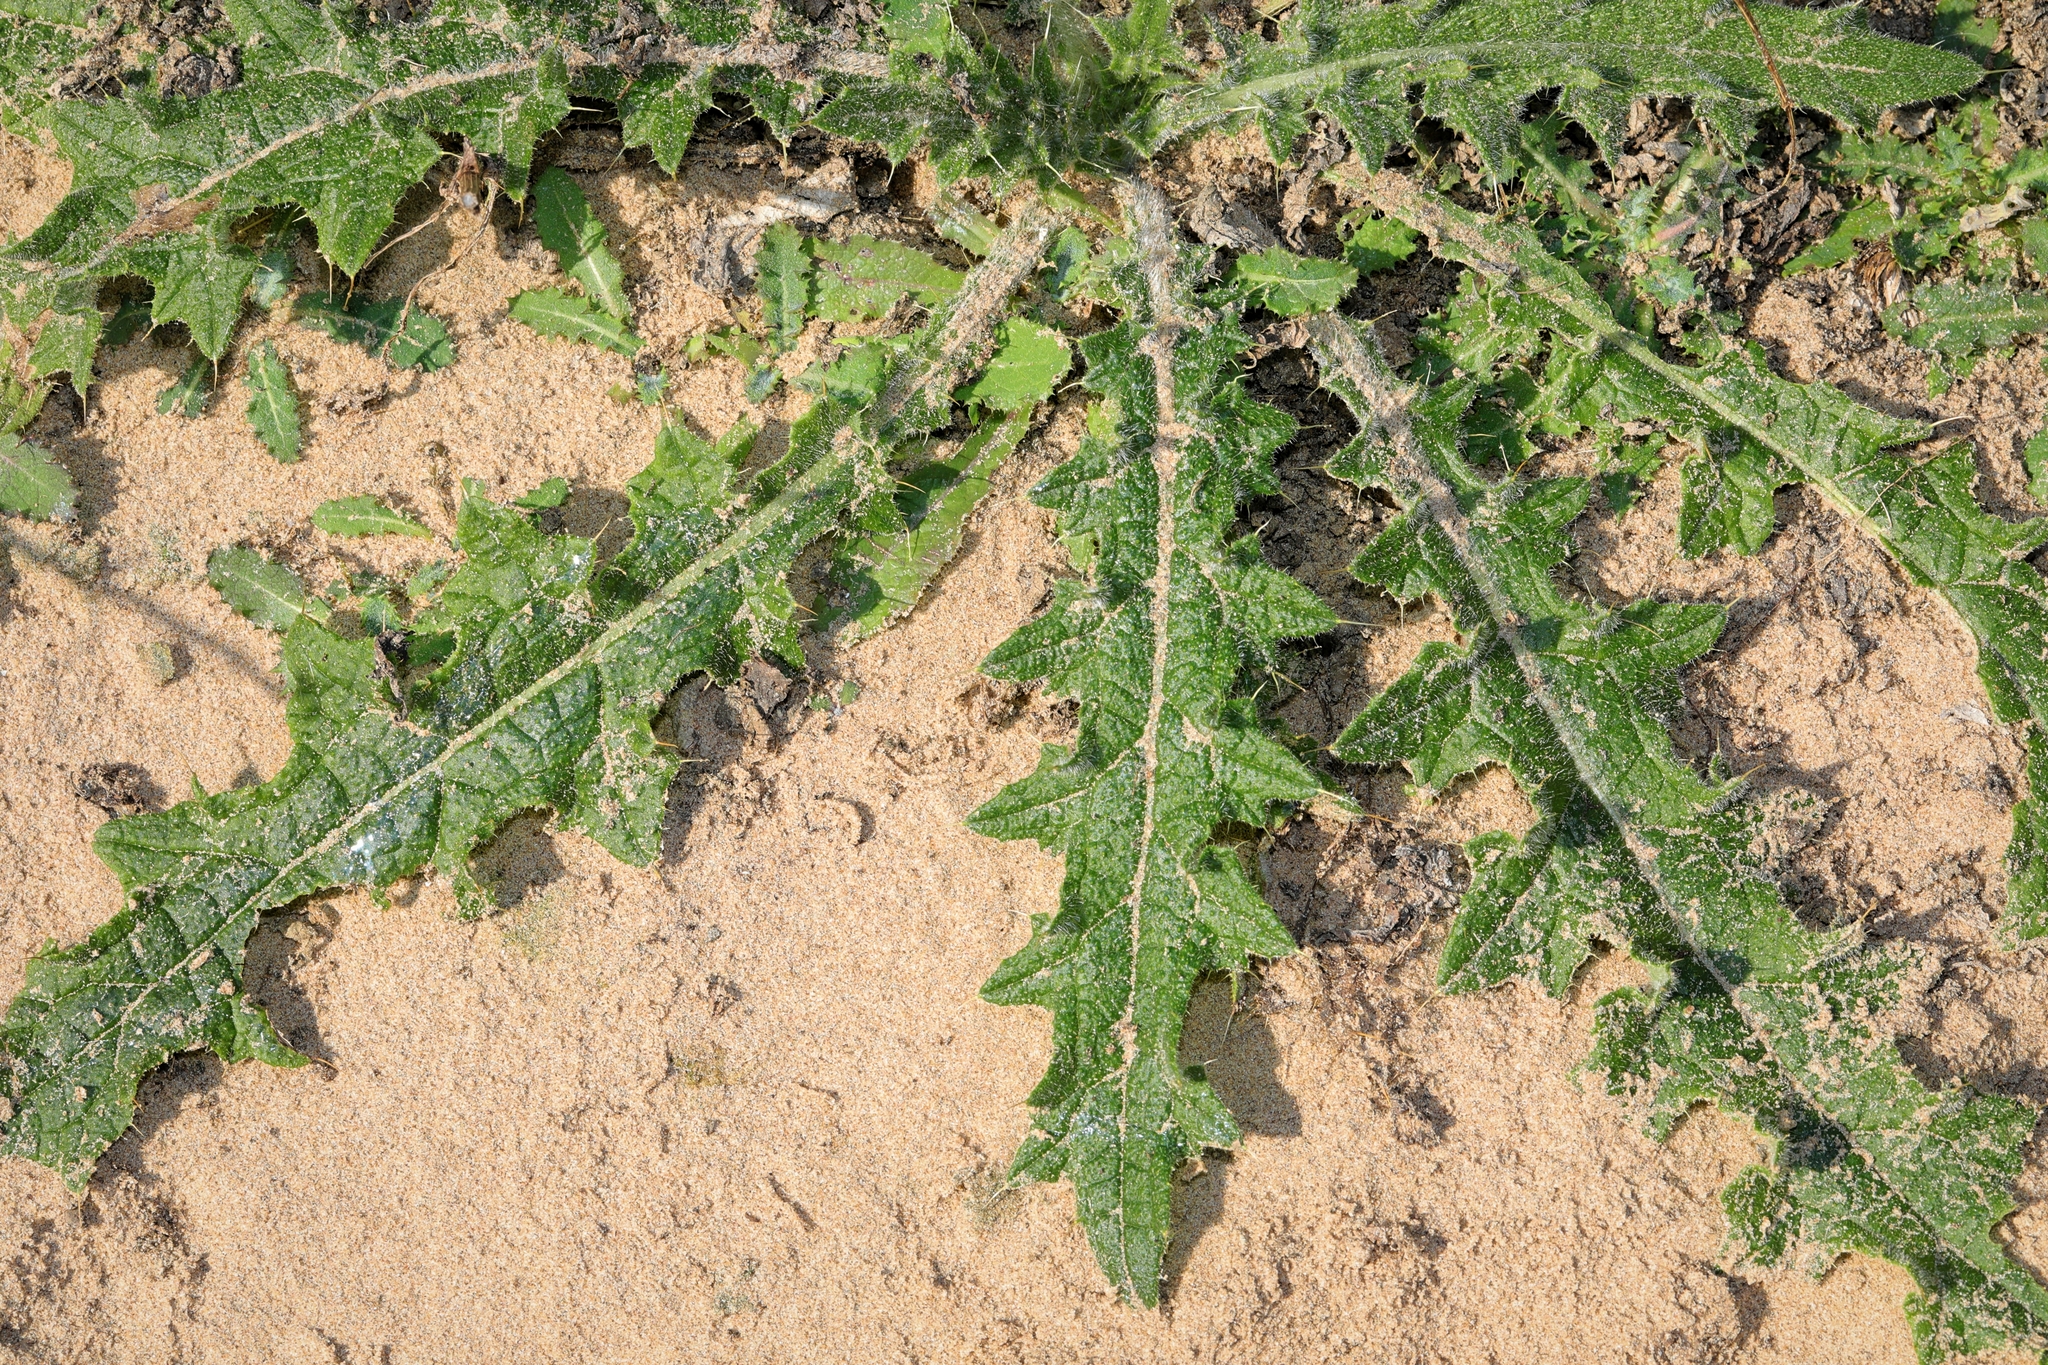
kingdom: Plantae
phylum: Tracheophyta
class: Magnoliopsida
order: Asterales
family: Asteraceae
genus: Cirsium
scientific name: Cirsium vulgare
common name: Bull thistle
